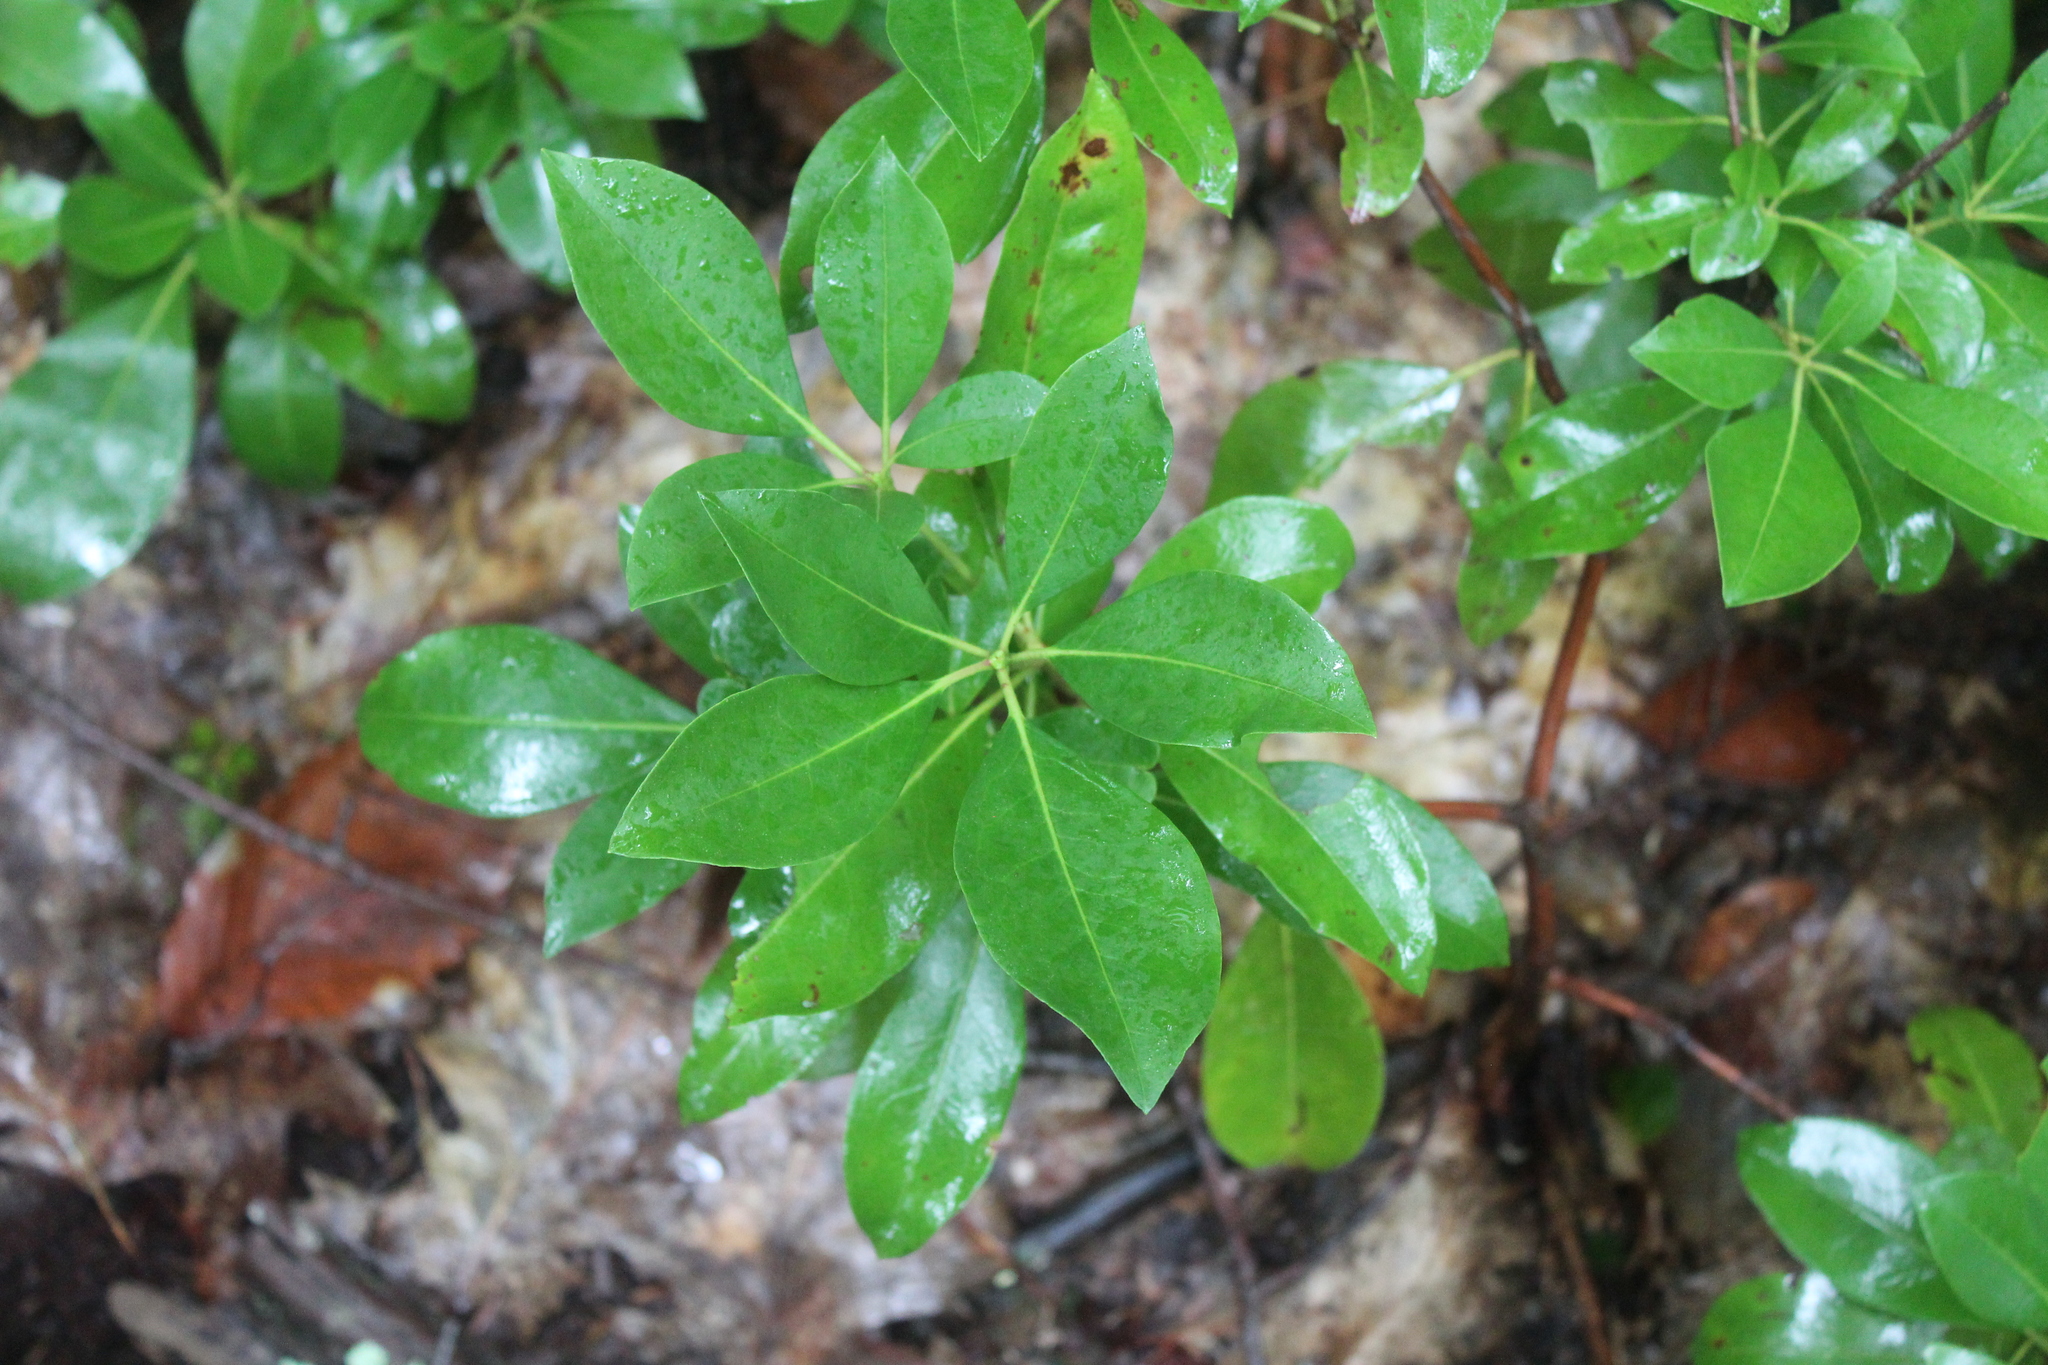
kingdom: Plantae
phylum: Tracheophyta
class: Magnoliopsida
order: Ericales
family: Ericaceae
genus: Kalmia
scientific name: Kalmia latifolia
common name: Mountain-laurel
